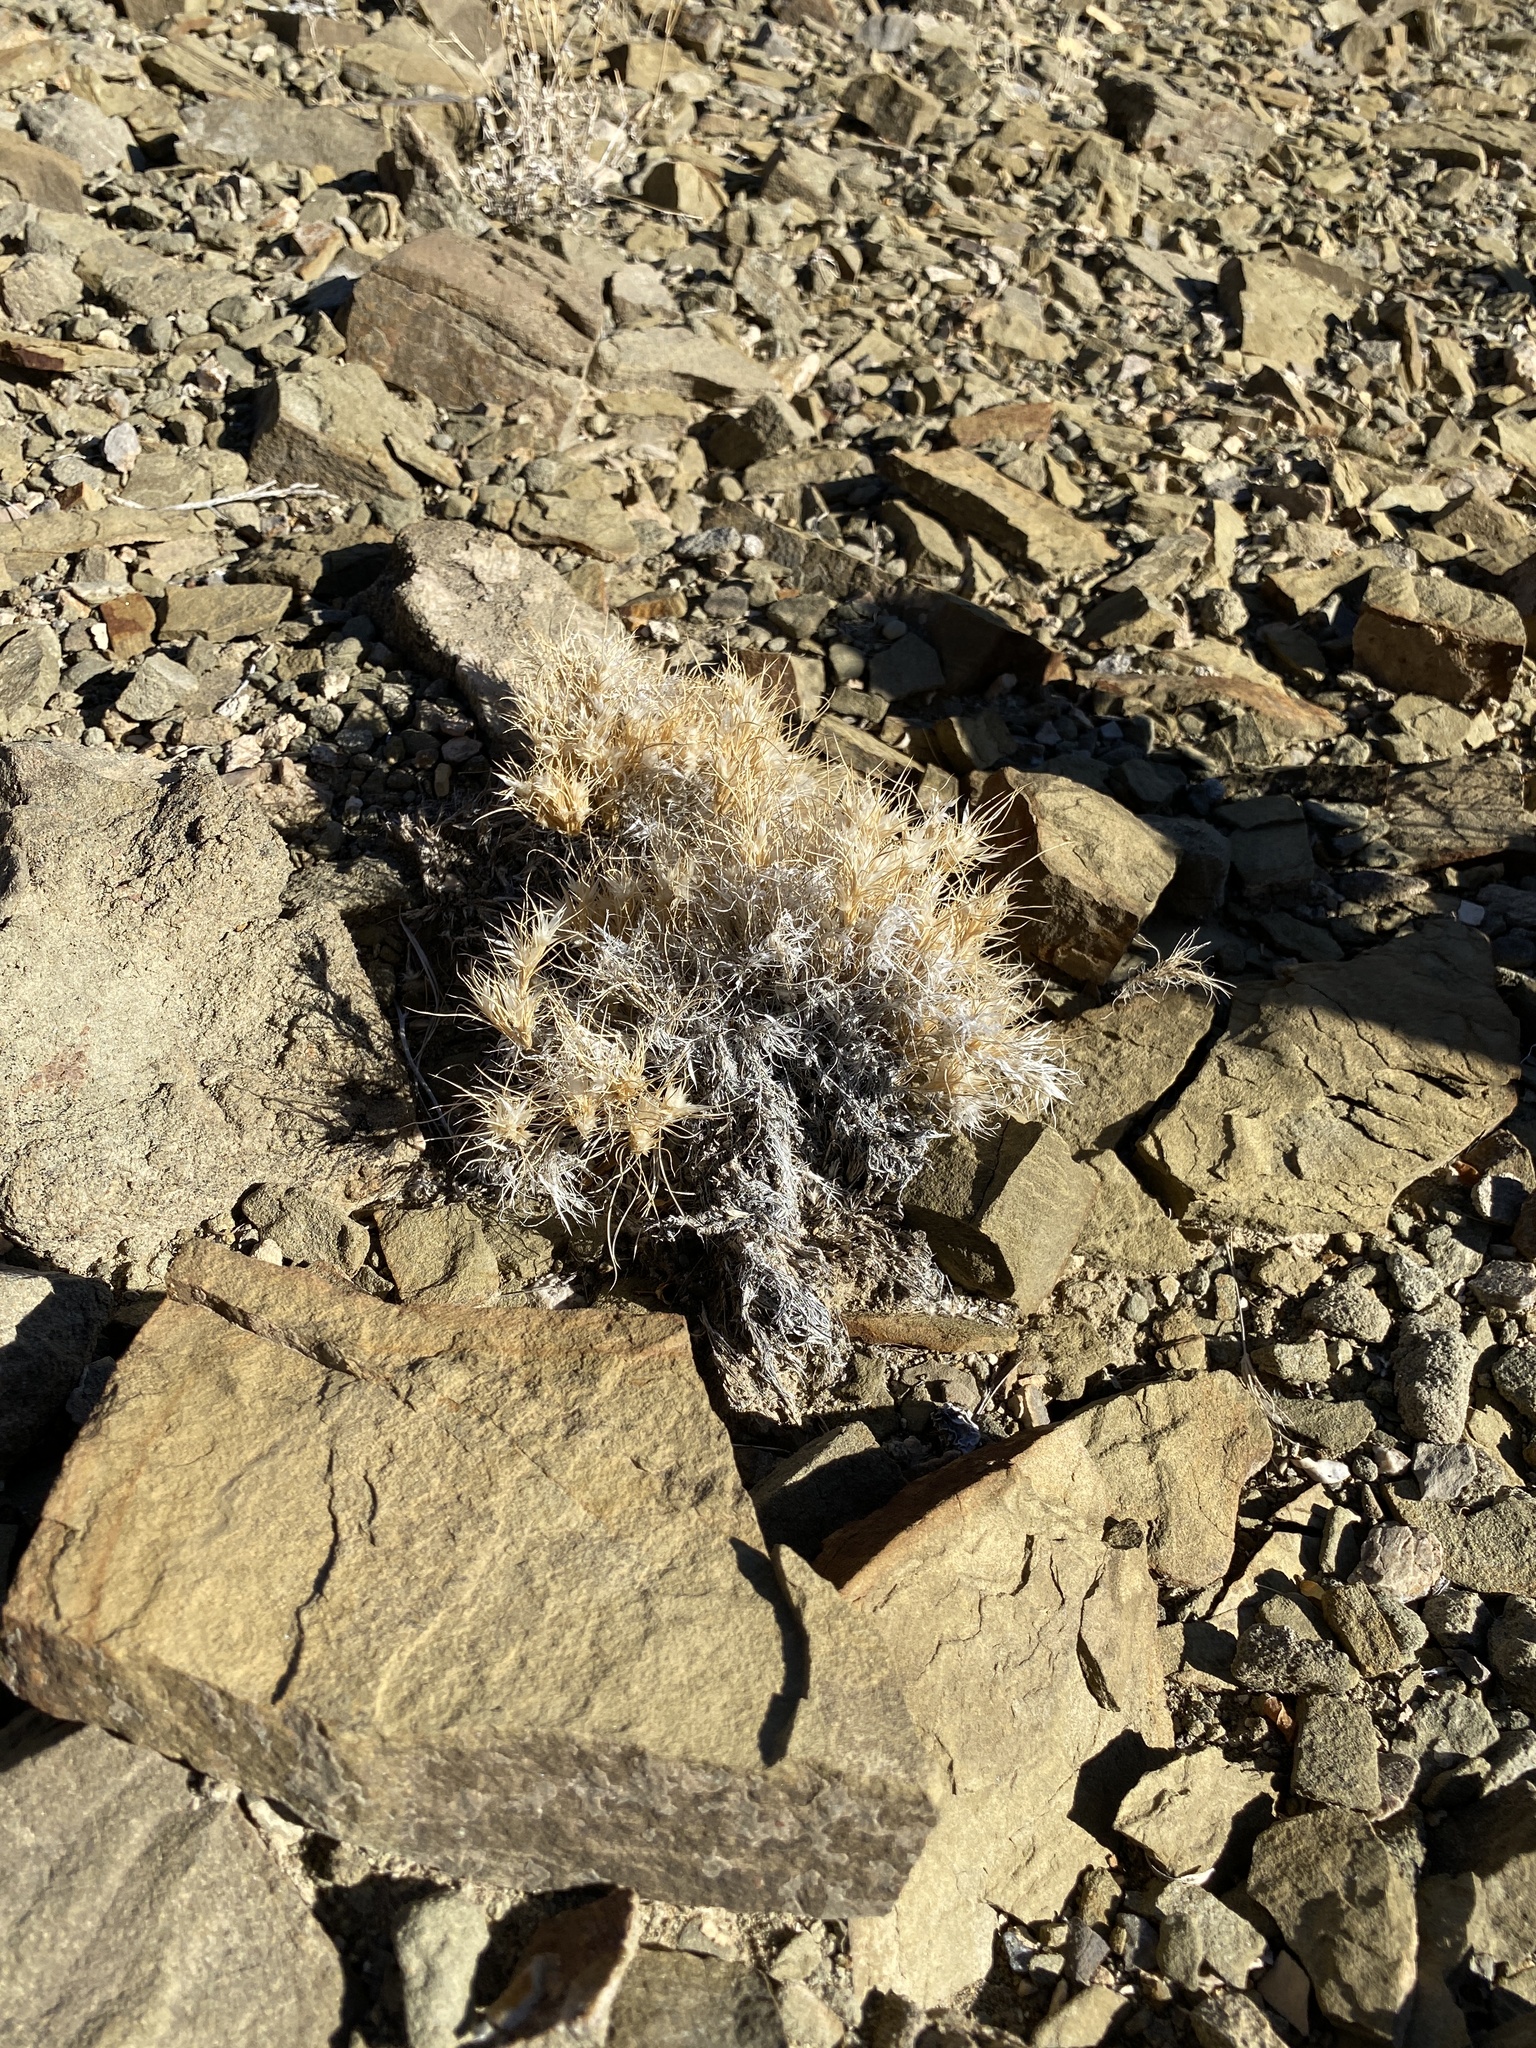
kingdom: Plantae
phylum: Tracheophyta
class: Liliopsida
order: Poales
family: Poaceae
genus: Dasyochloa
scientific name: Dasyochloa pulchella
